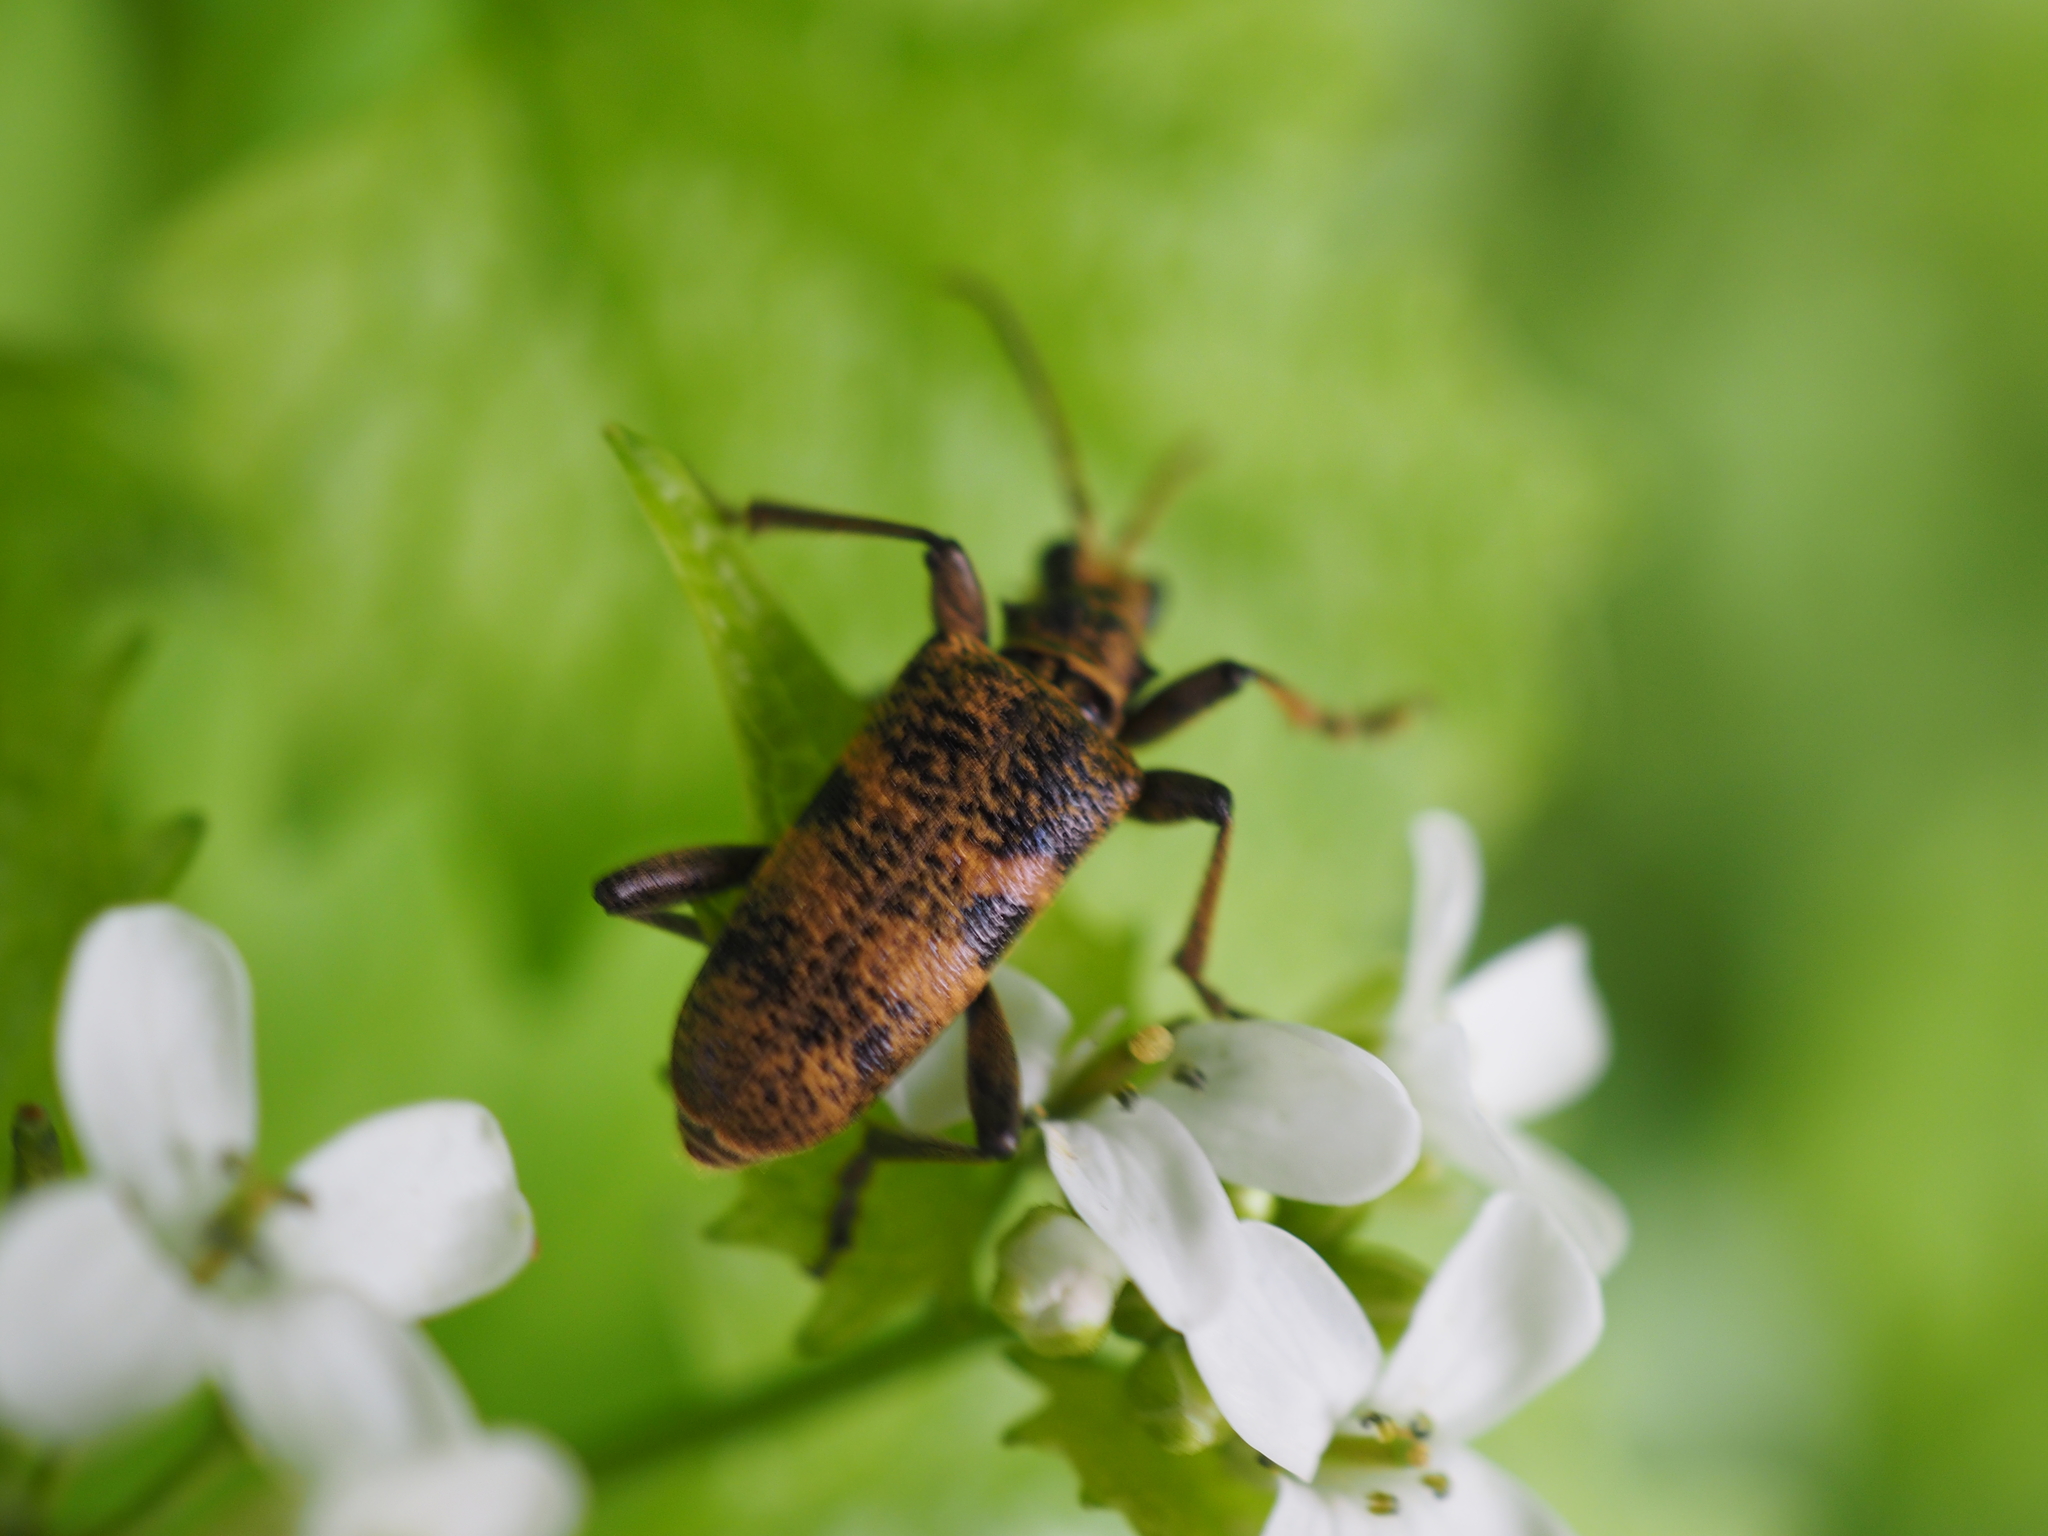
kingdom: Animalia
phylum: Arthropoda
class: Insecta
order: Coleoptera
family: Cerambycidae
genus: Rhagium
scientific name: Rhagium mordax
